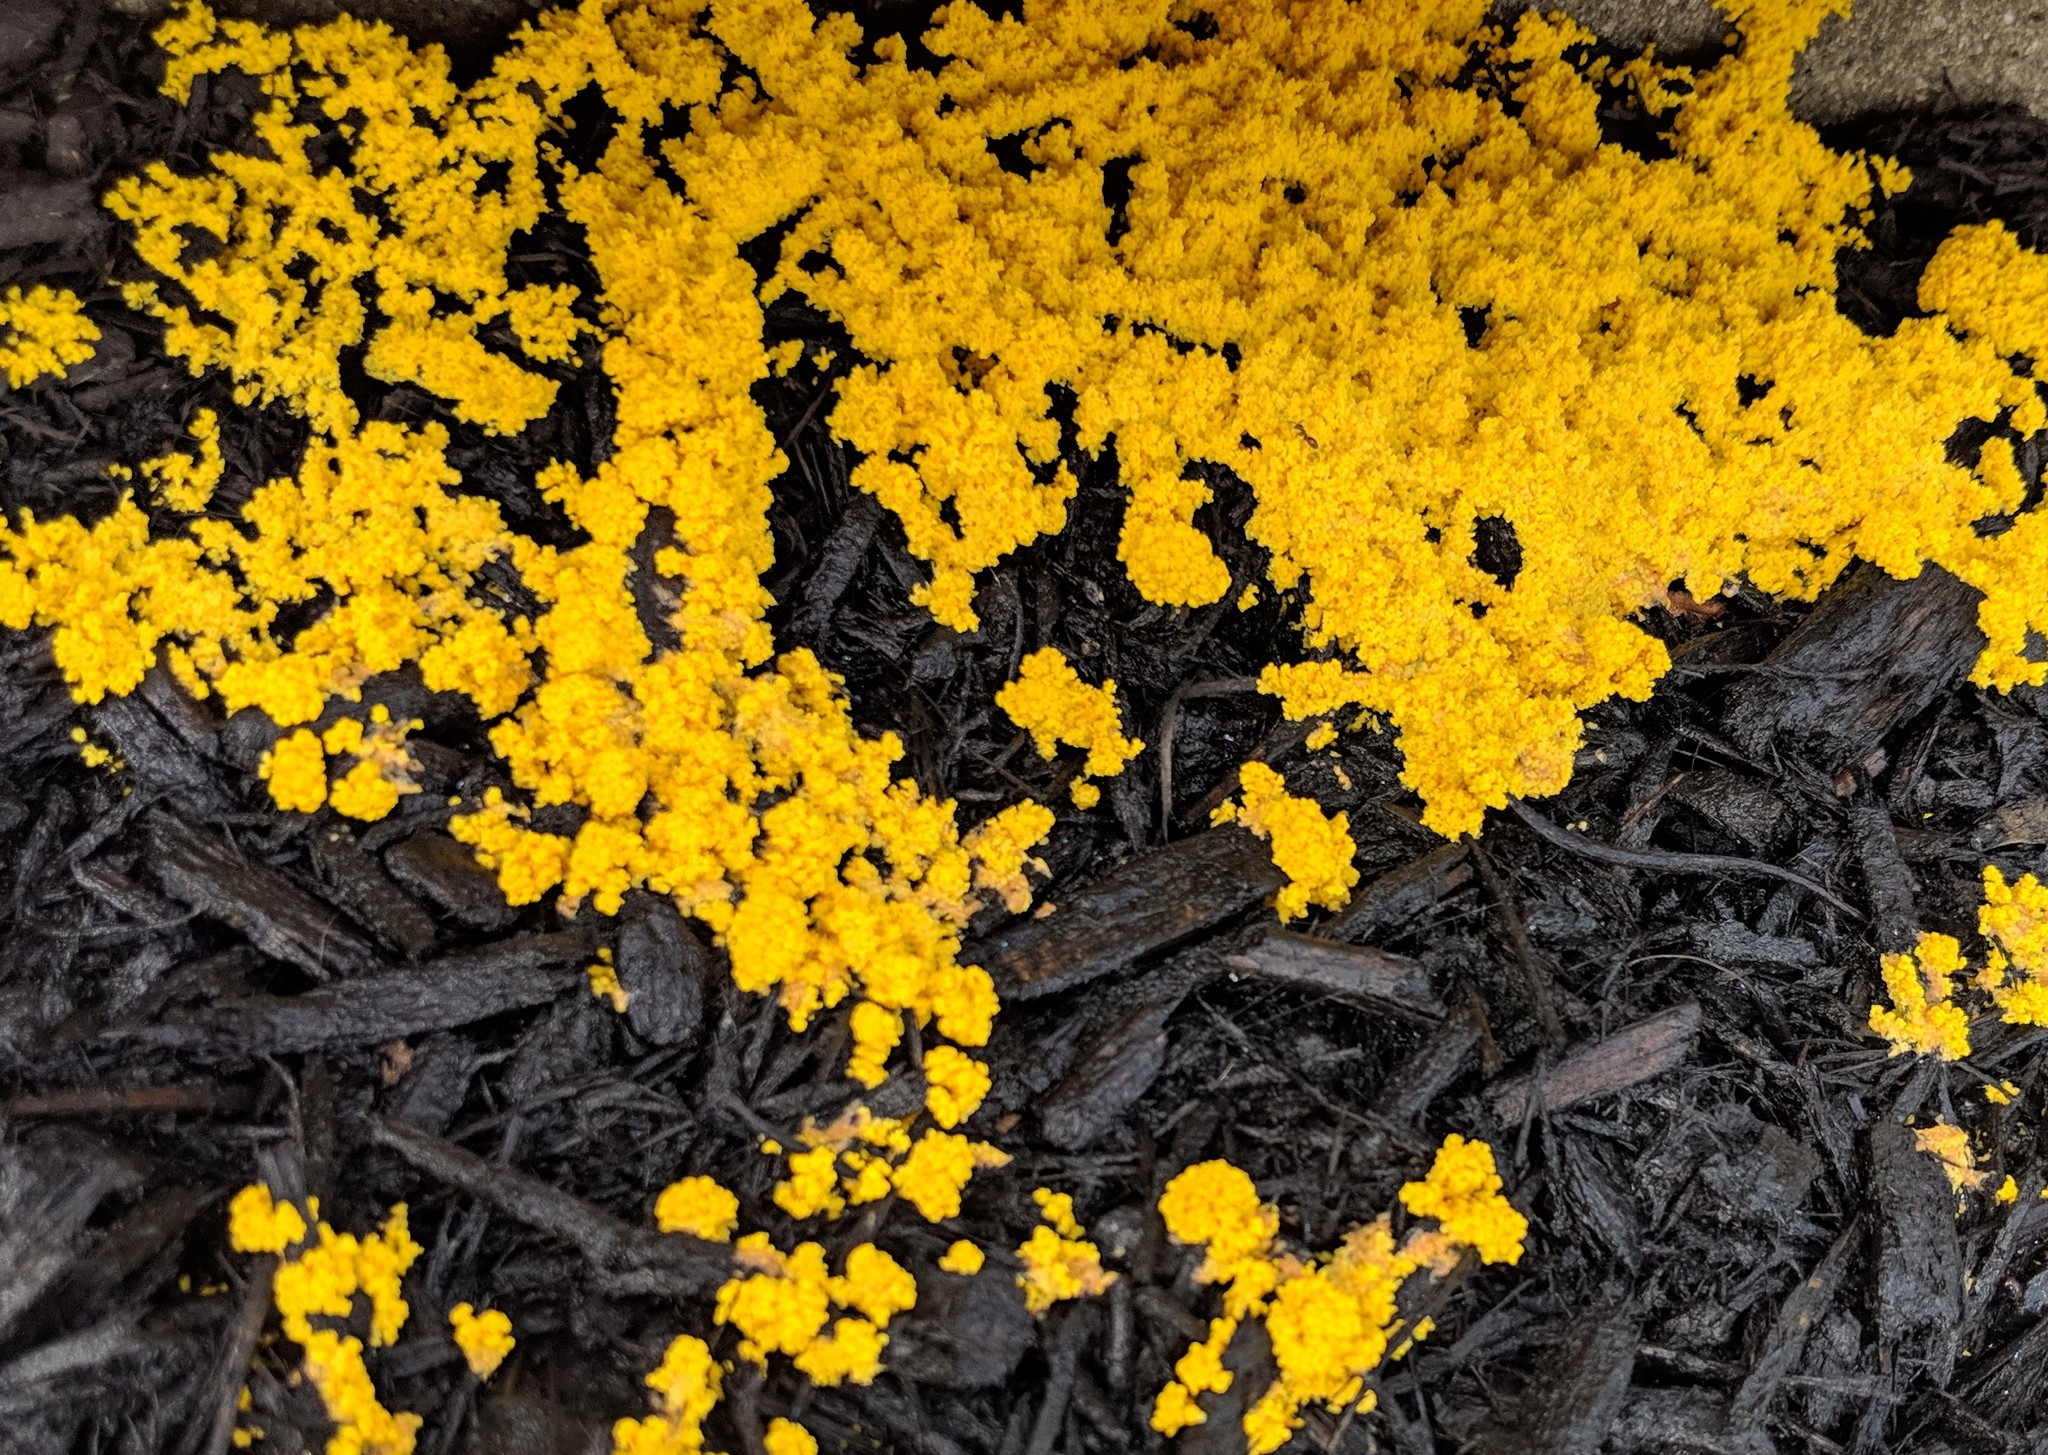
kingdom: Protozoa
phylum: Mycetozoa
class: Myxomycetes
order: Physarales
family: Physaraceae
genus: Fuligo
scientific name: Fuligo septica
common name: Dog vomit slime mold
